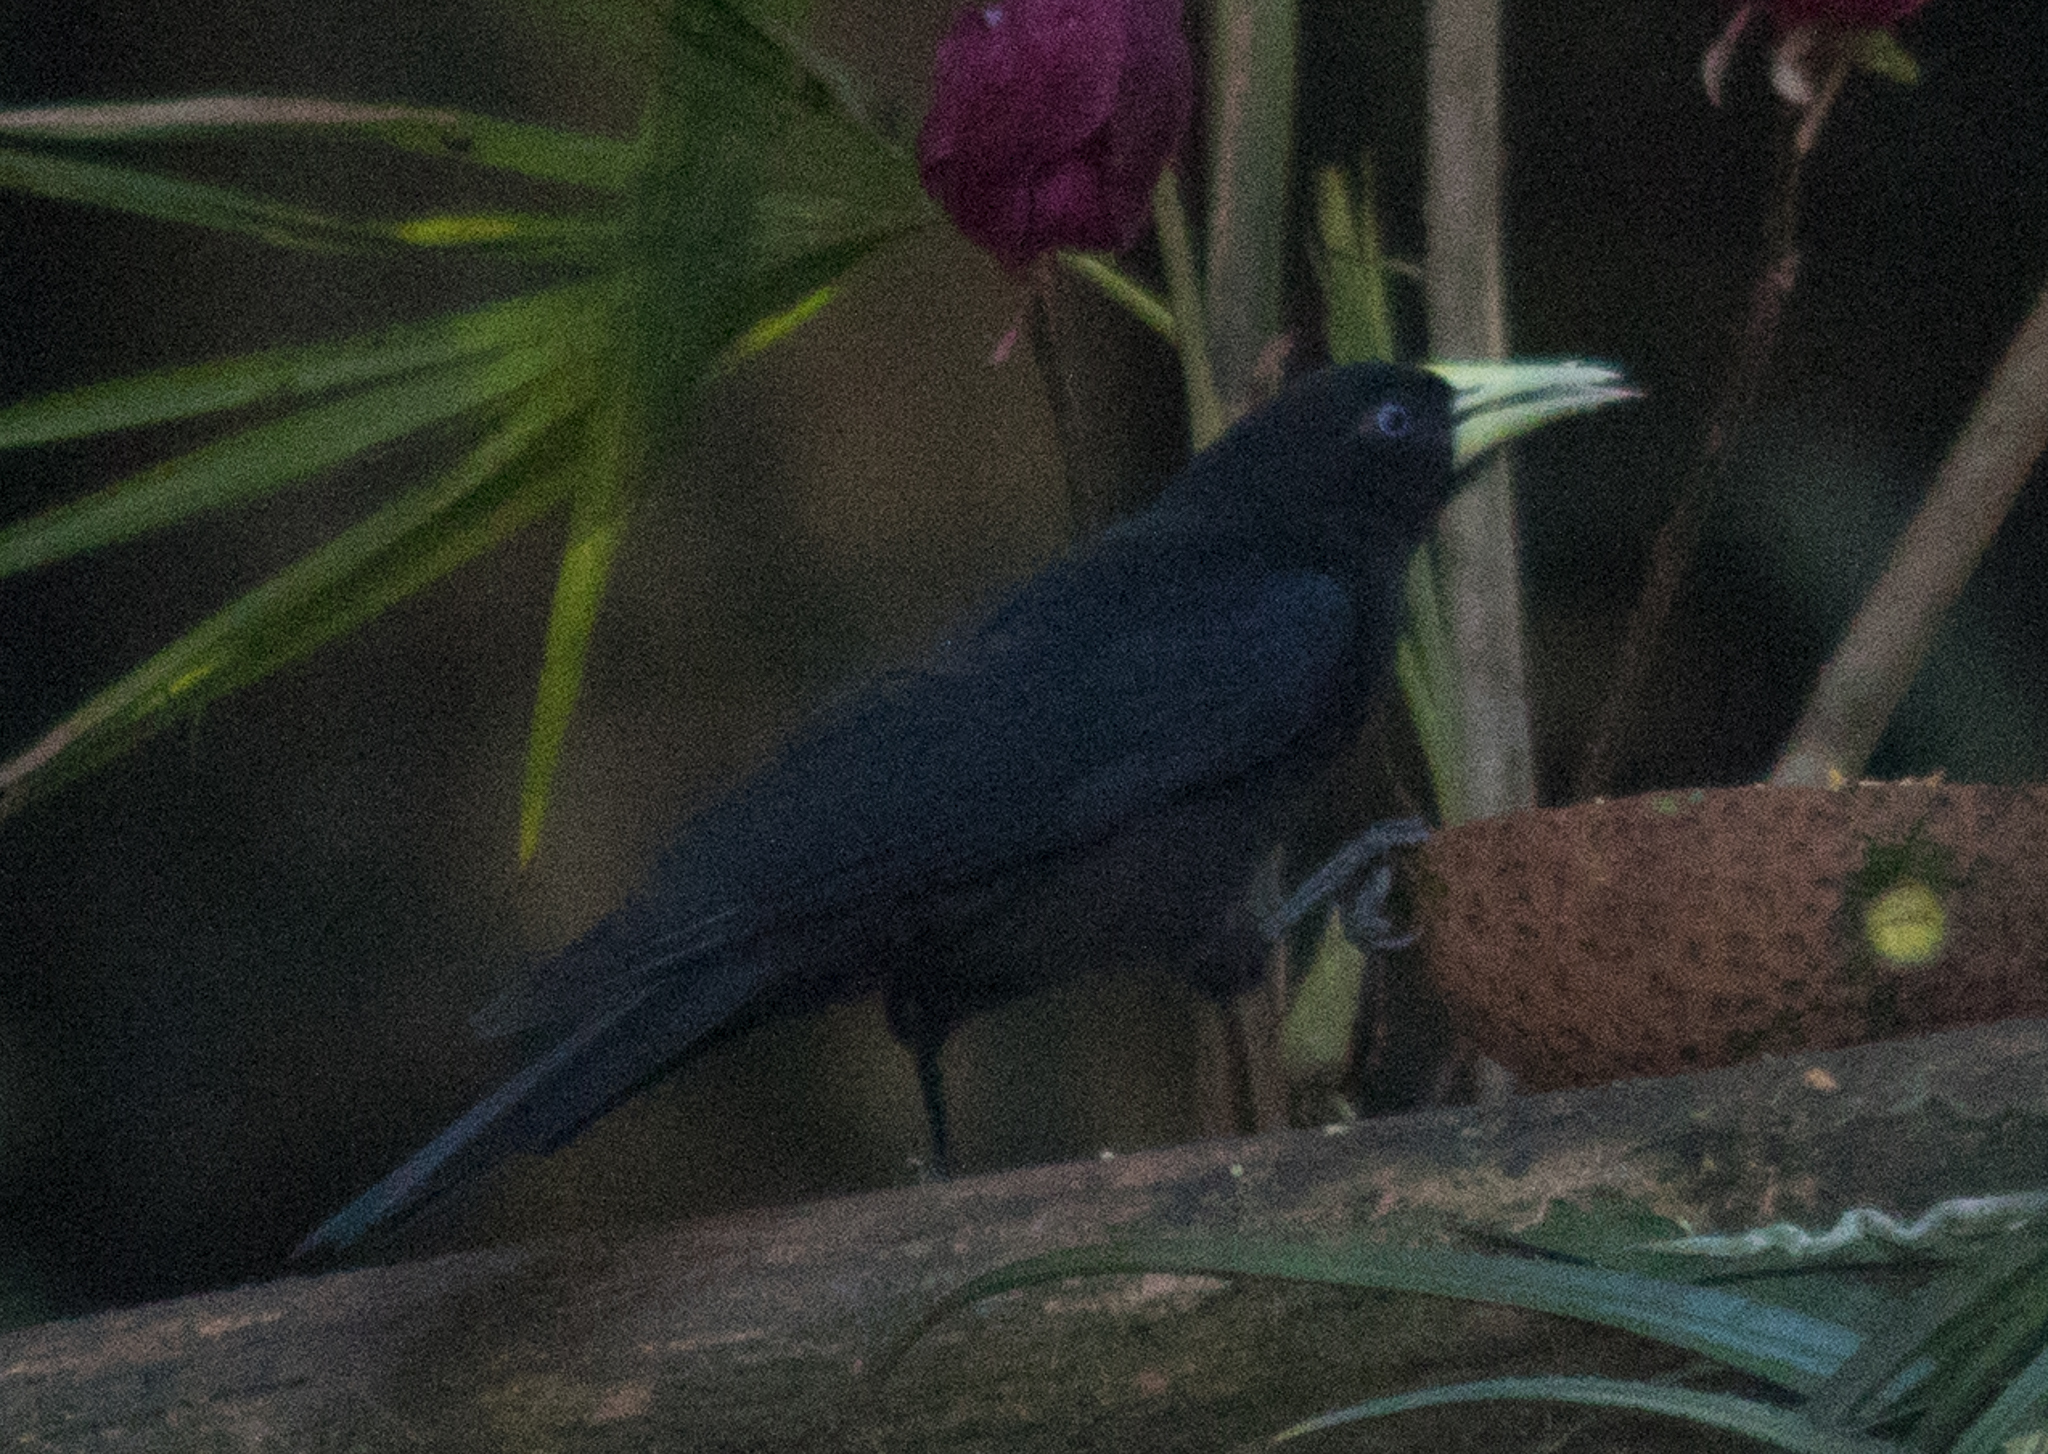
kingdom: Animalia
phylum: Chordata
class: Aves
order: Passeriformes
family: Icteridae
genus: Cacicus
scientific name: Cacicus haemorrhous
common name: Red-rumped cacique
